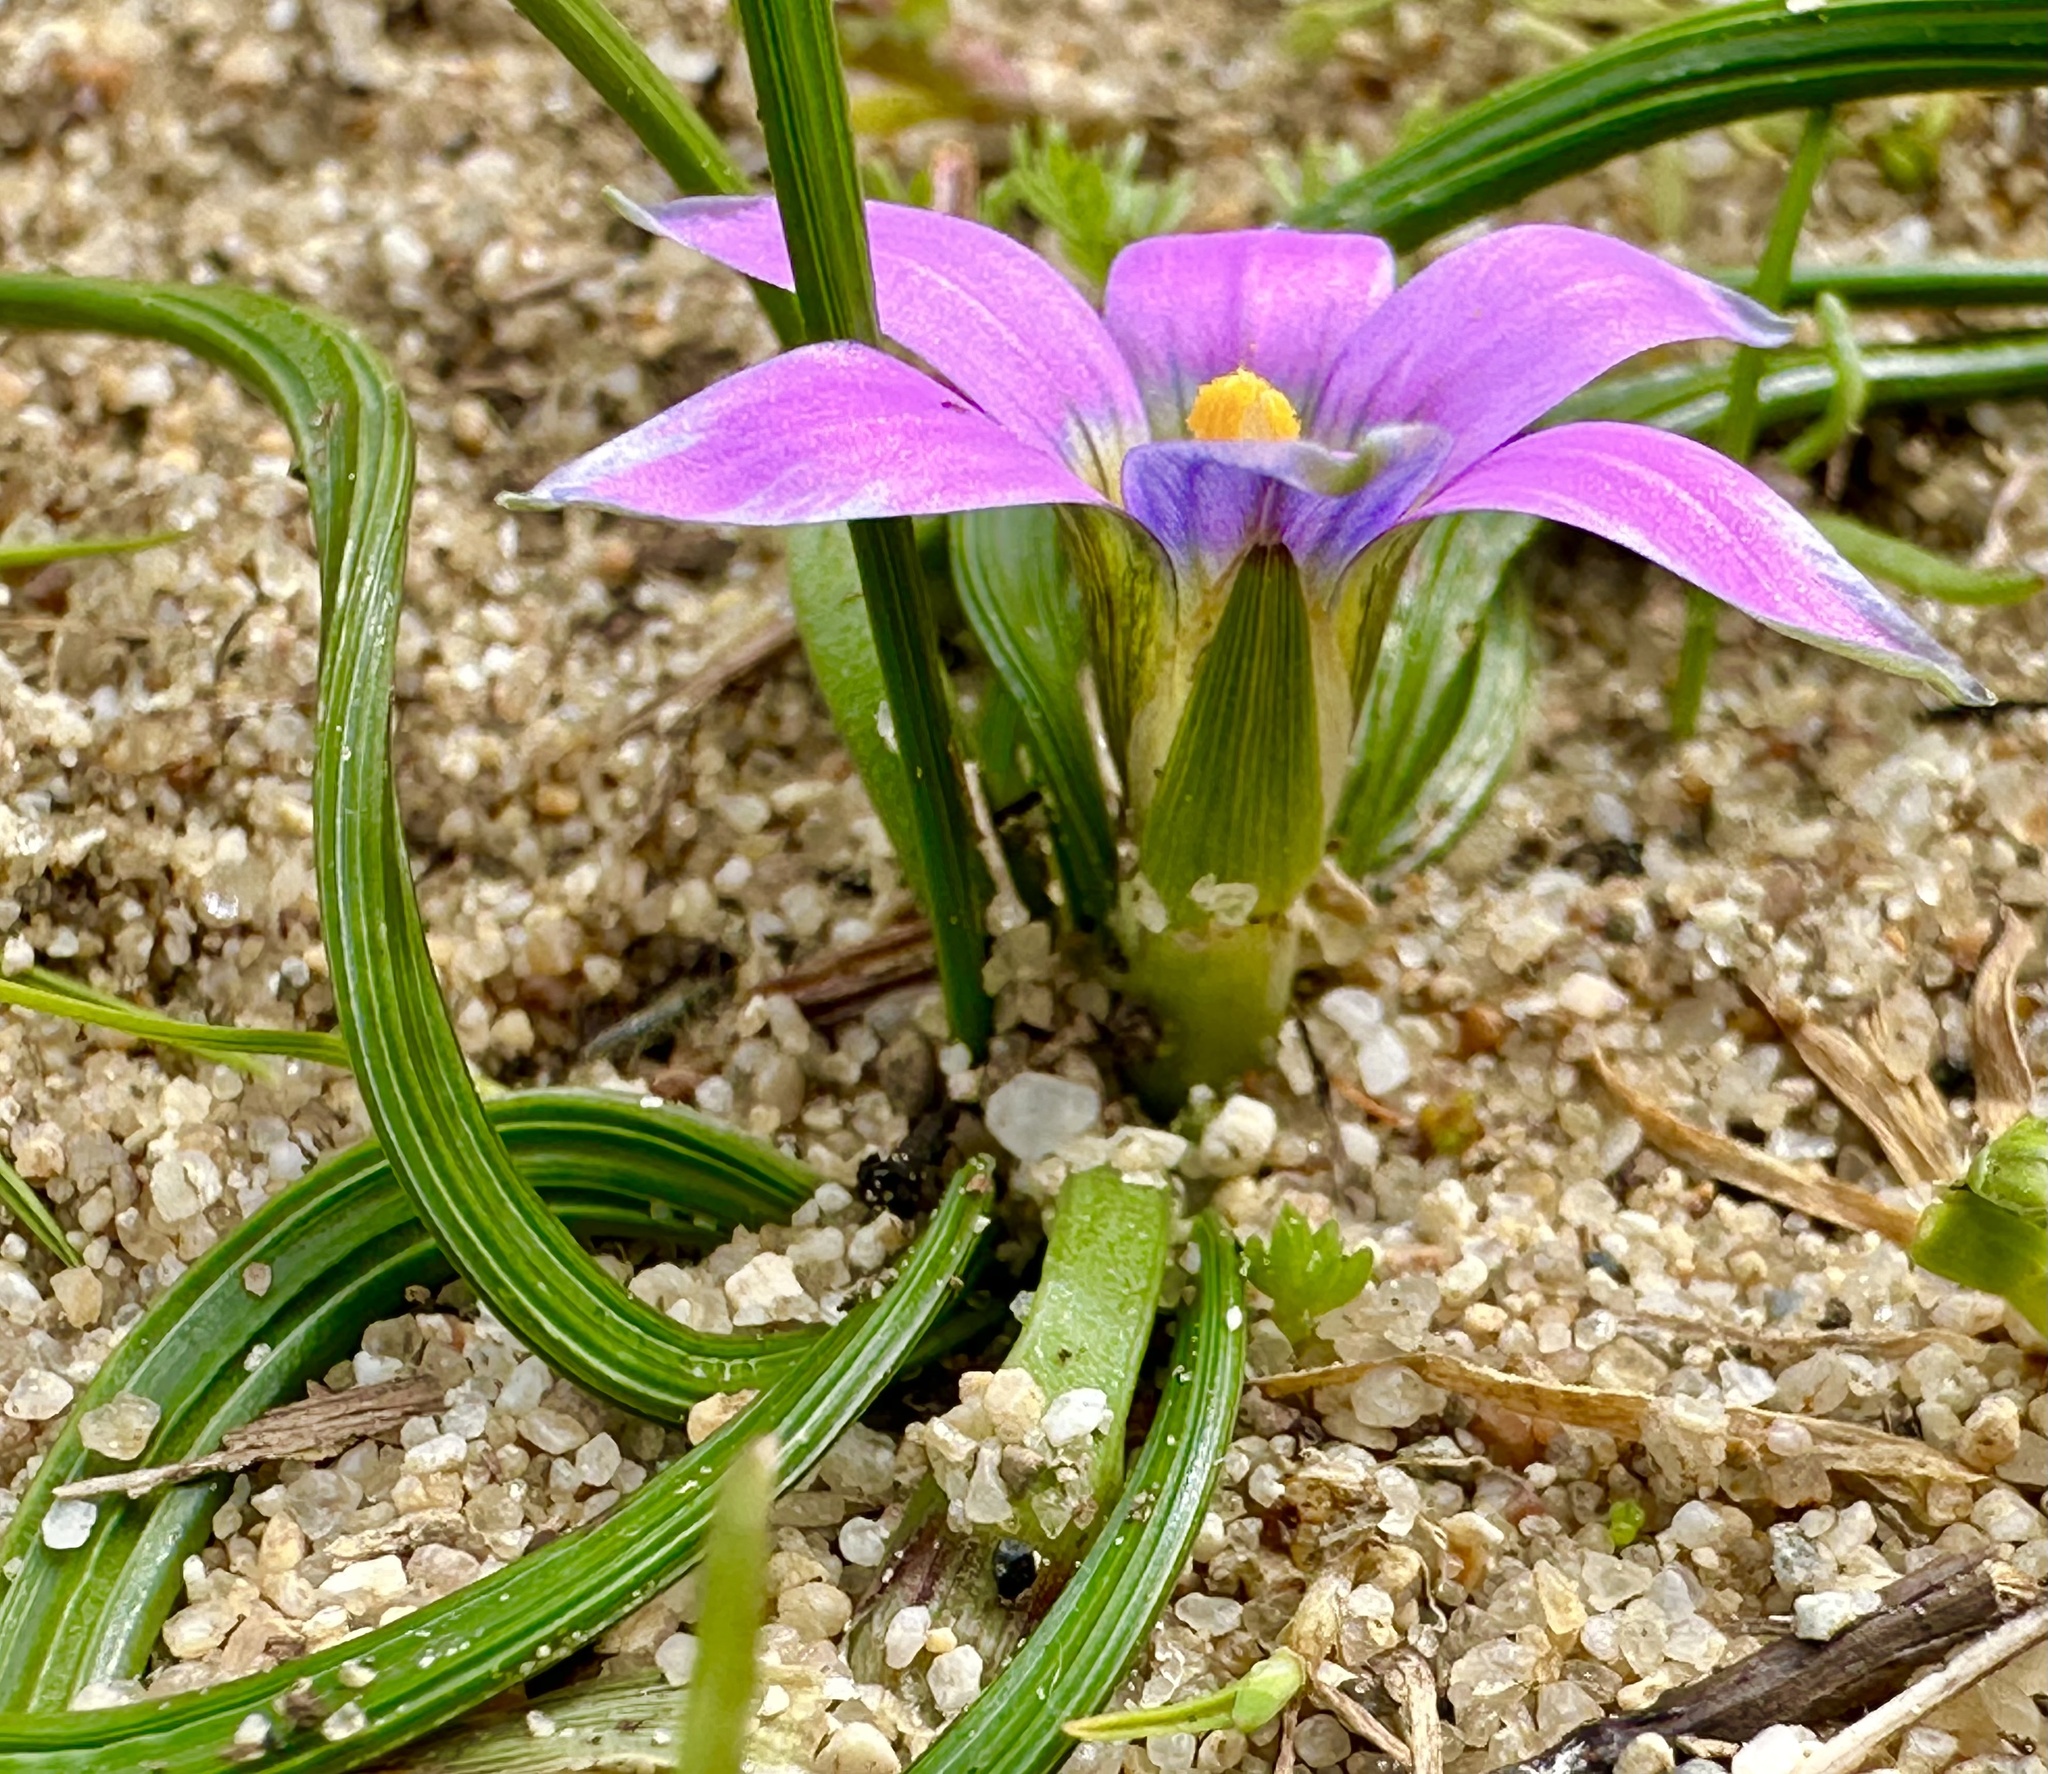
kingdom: Plantae
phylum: Tracheophyta
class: Liliopsida
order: Asparagales
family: Iridaceae
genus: Romulea
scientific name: Romulea rosea
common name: Oniongrass
